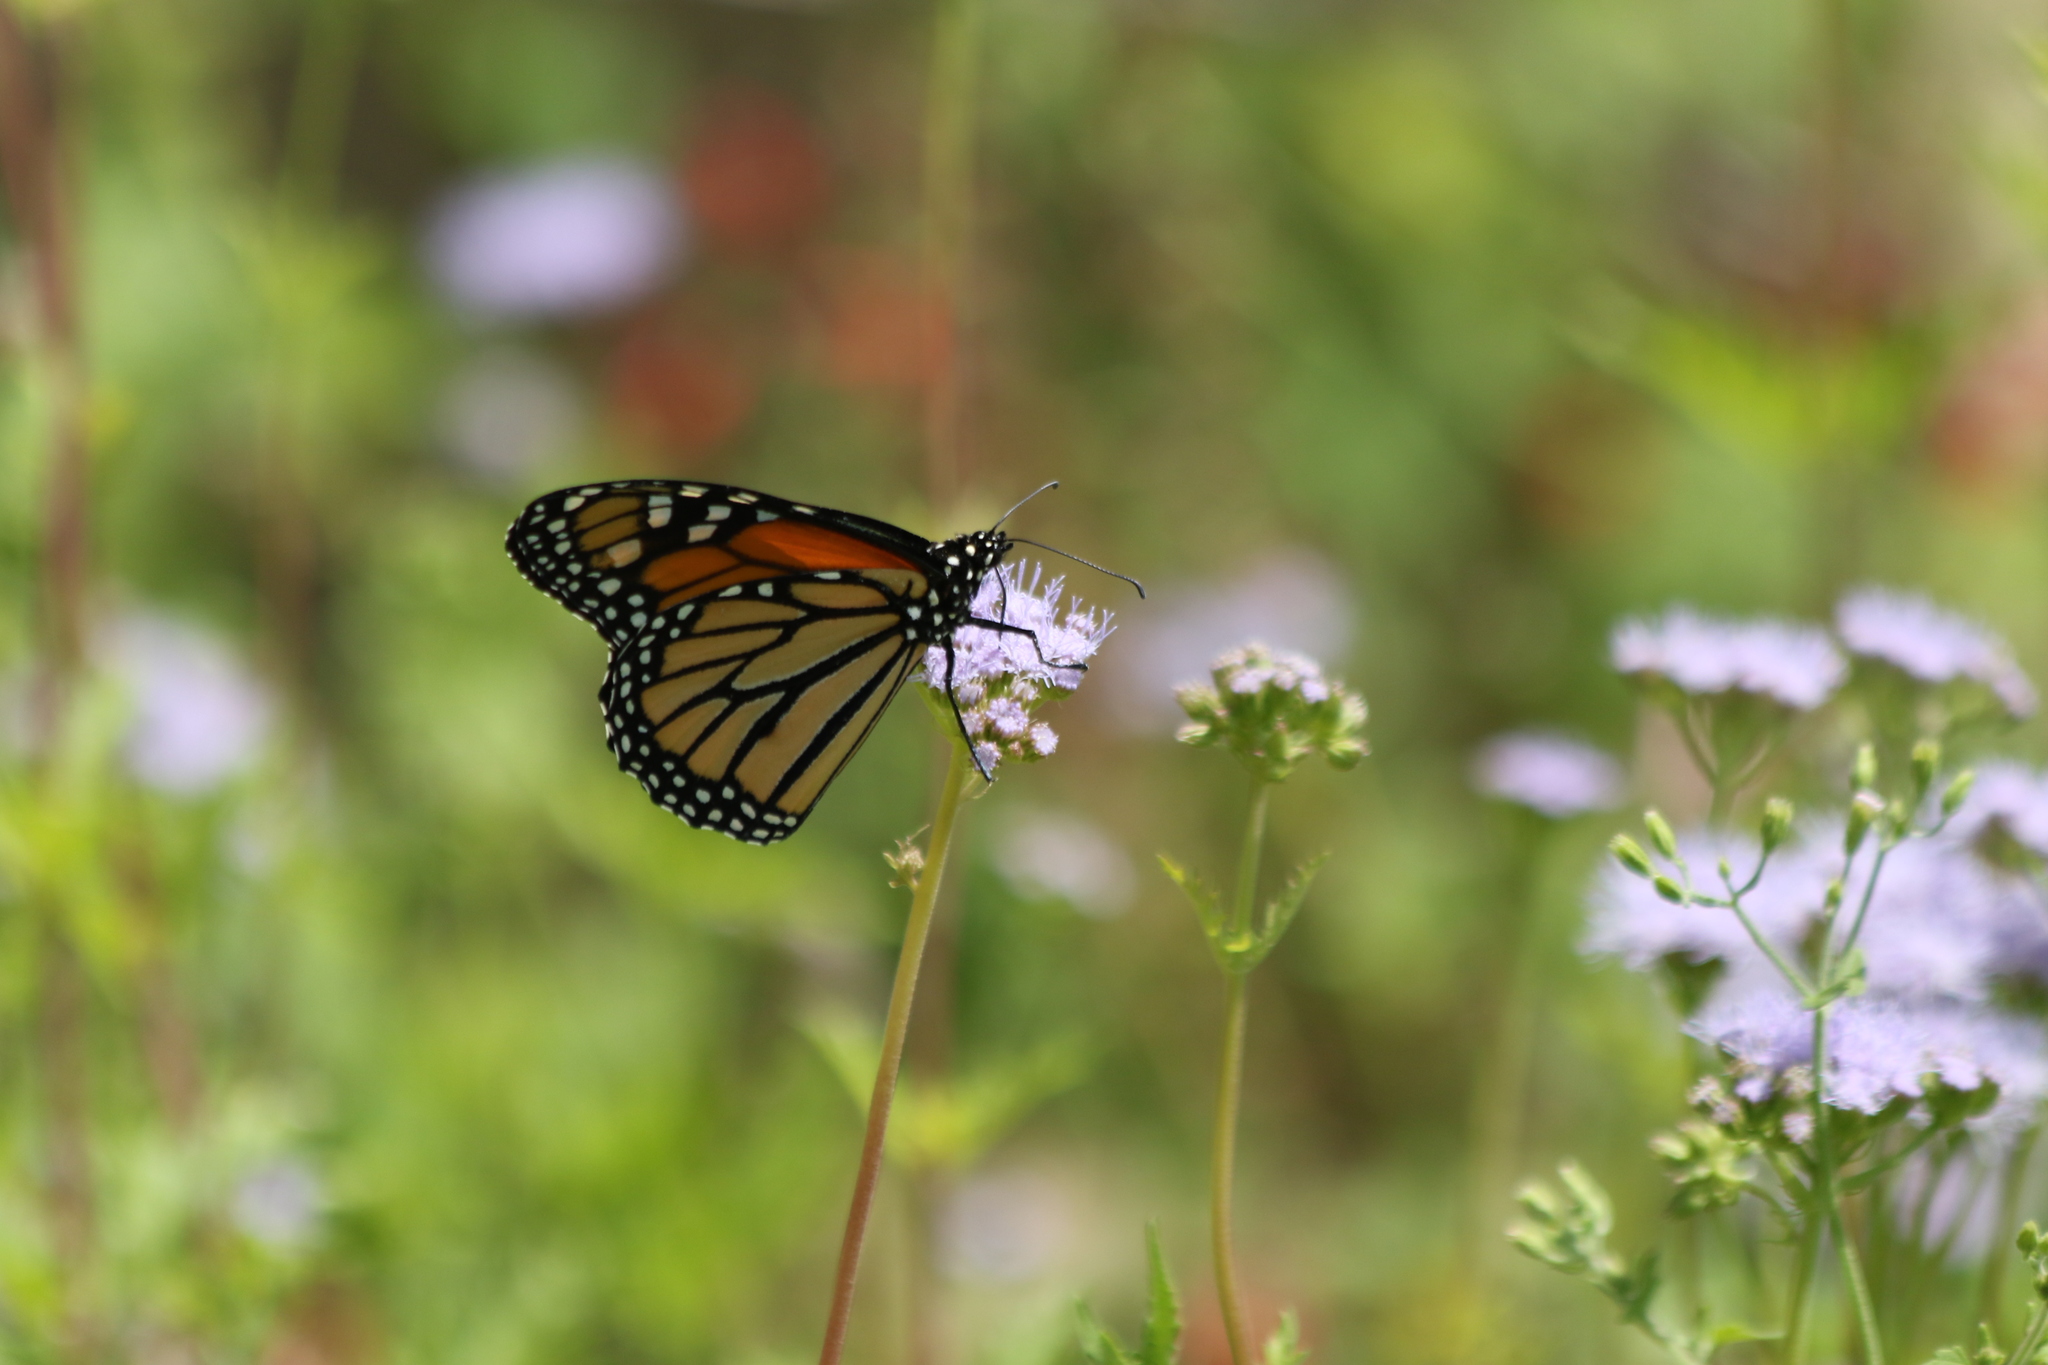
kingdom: Animalia
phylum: Arthropoda
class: Insecta
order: Lepidoptera
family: Nymphalidae
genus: Danaus
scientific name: Danaus plexippus
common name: Monarch
